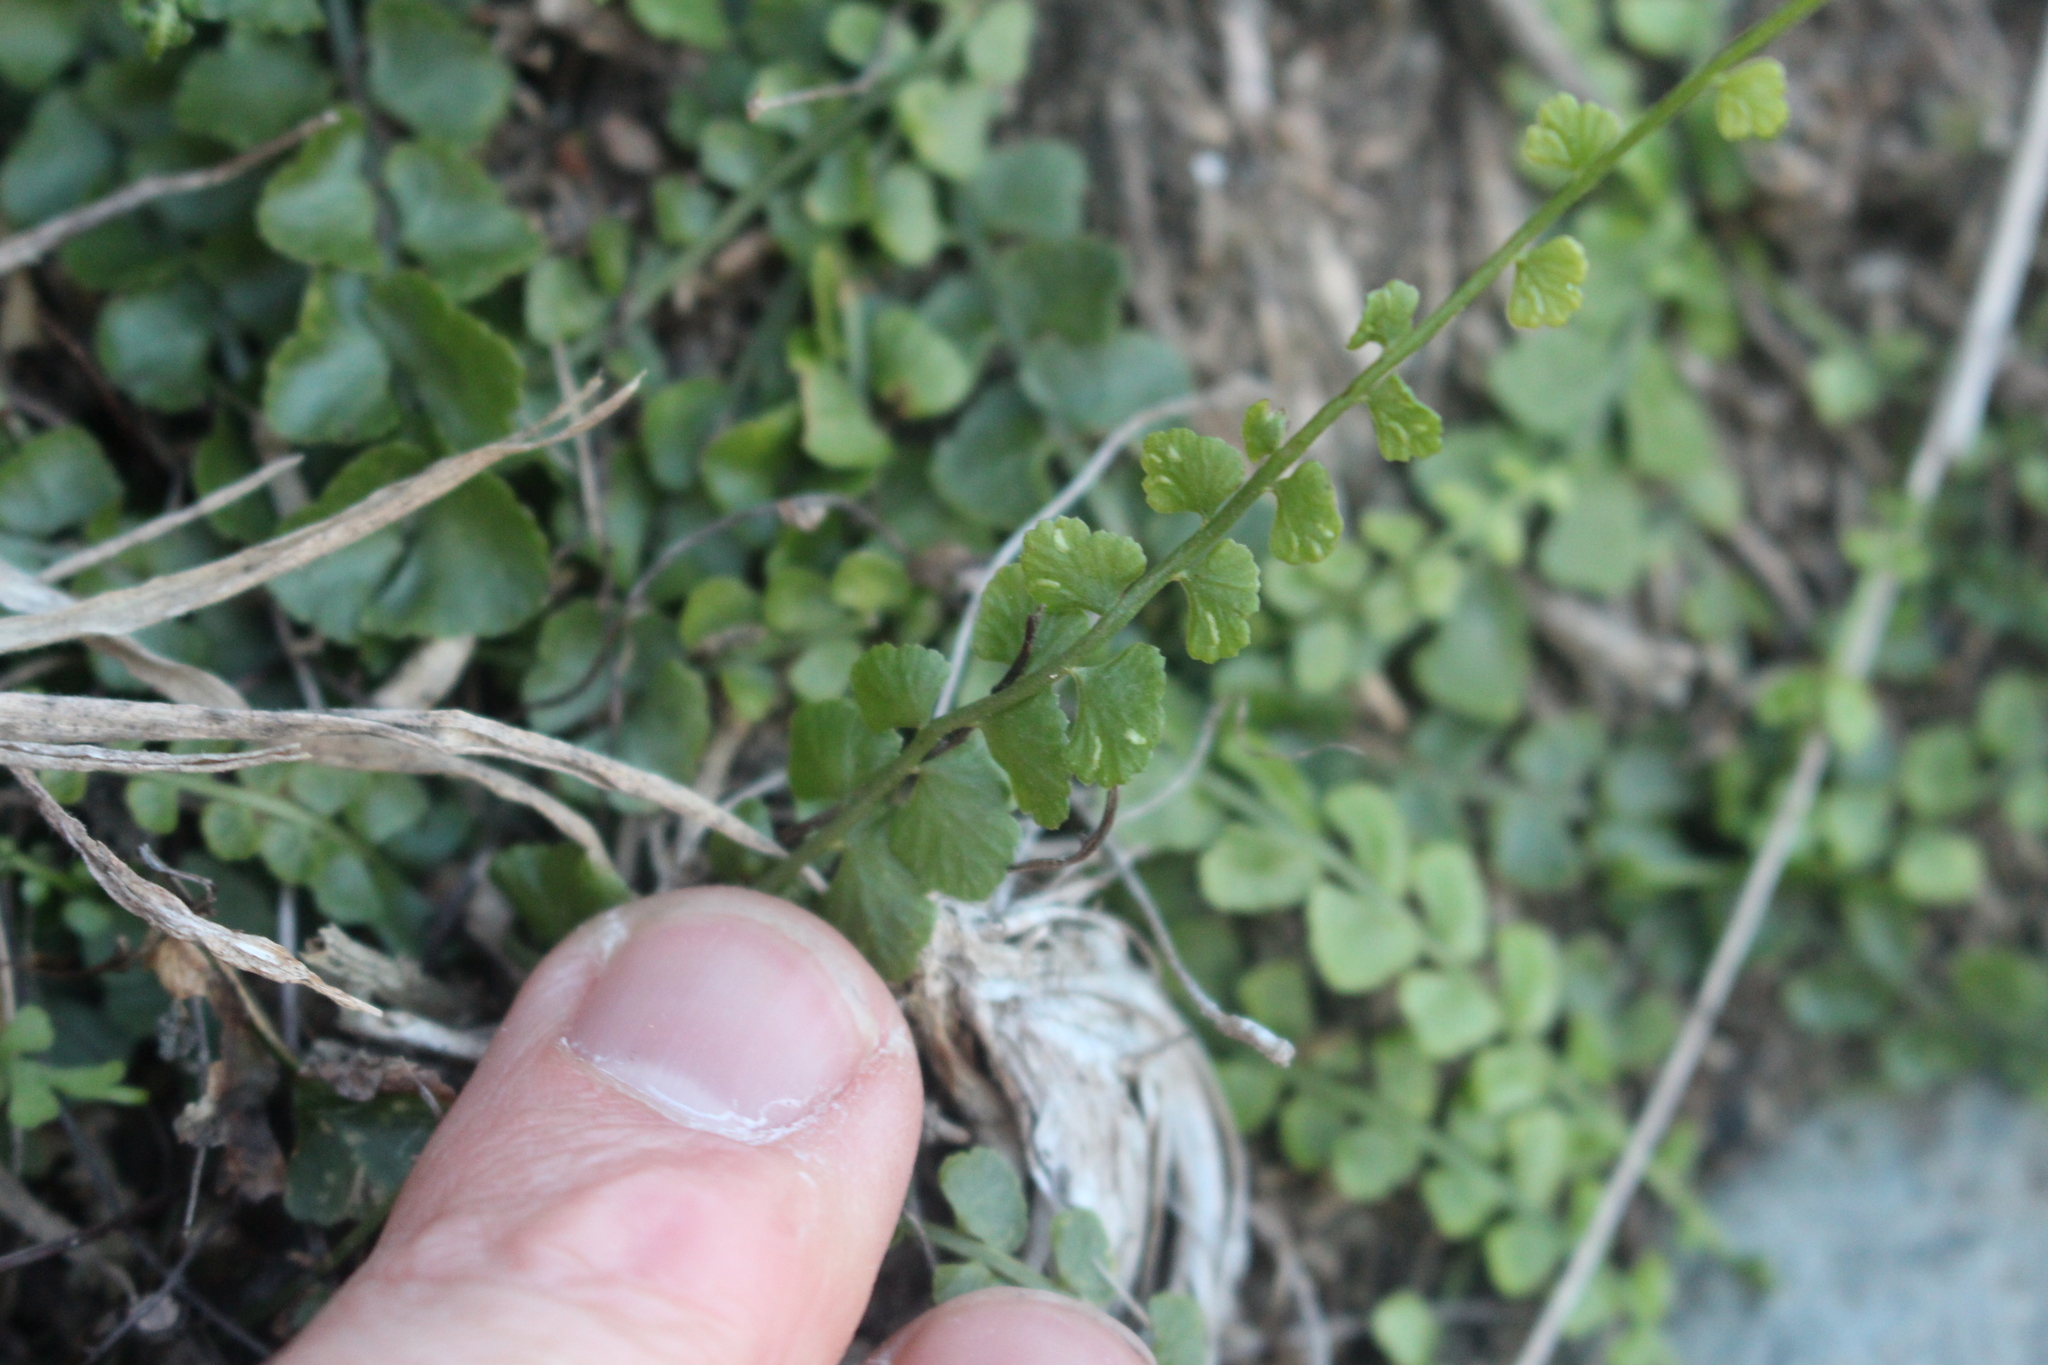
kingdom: Plantae
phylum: Tracheophyta
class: Polypodiopsida
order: Polypodiales
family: Aspleniaceae
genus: Asplenium
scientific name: Asplenium flabellifolium
